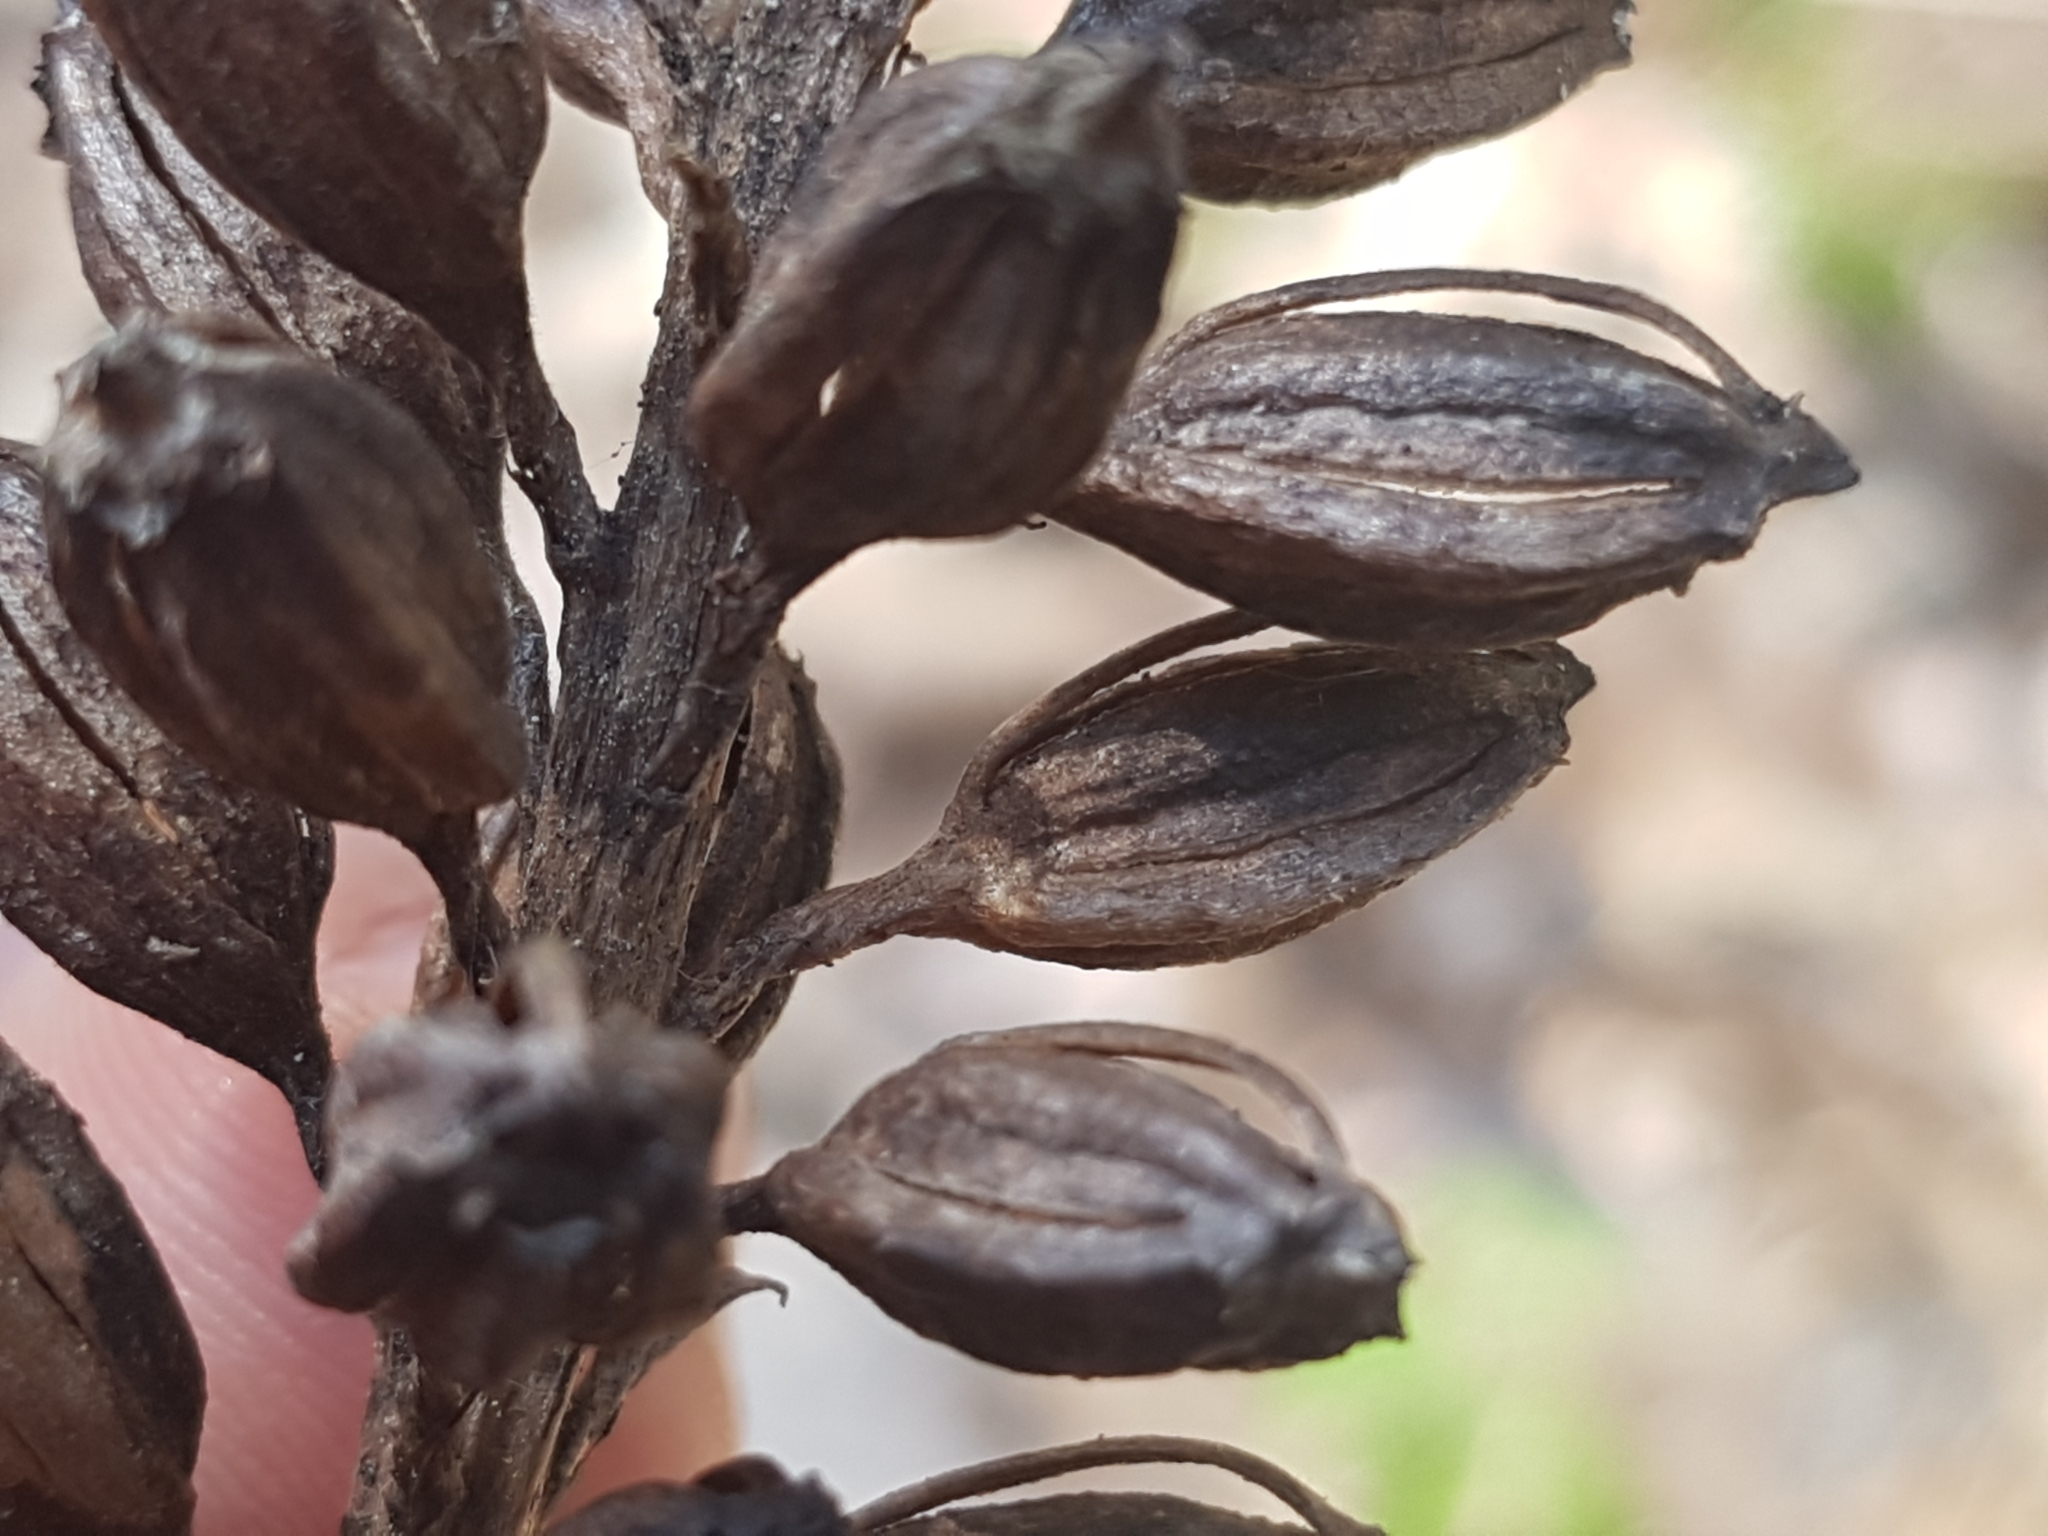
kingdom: Plantae
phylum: Tracheophyta
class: Liliopsida
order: Asparagales
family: Orchidaceae
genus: Neottia
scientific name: Neottia nidus-avis
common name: Bird's-nest orchid
